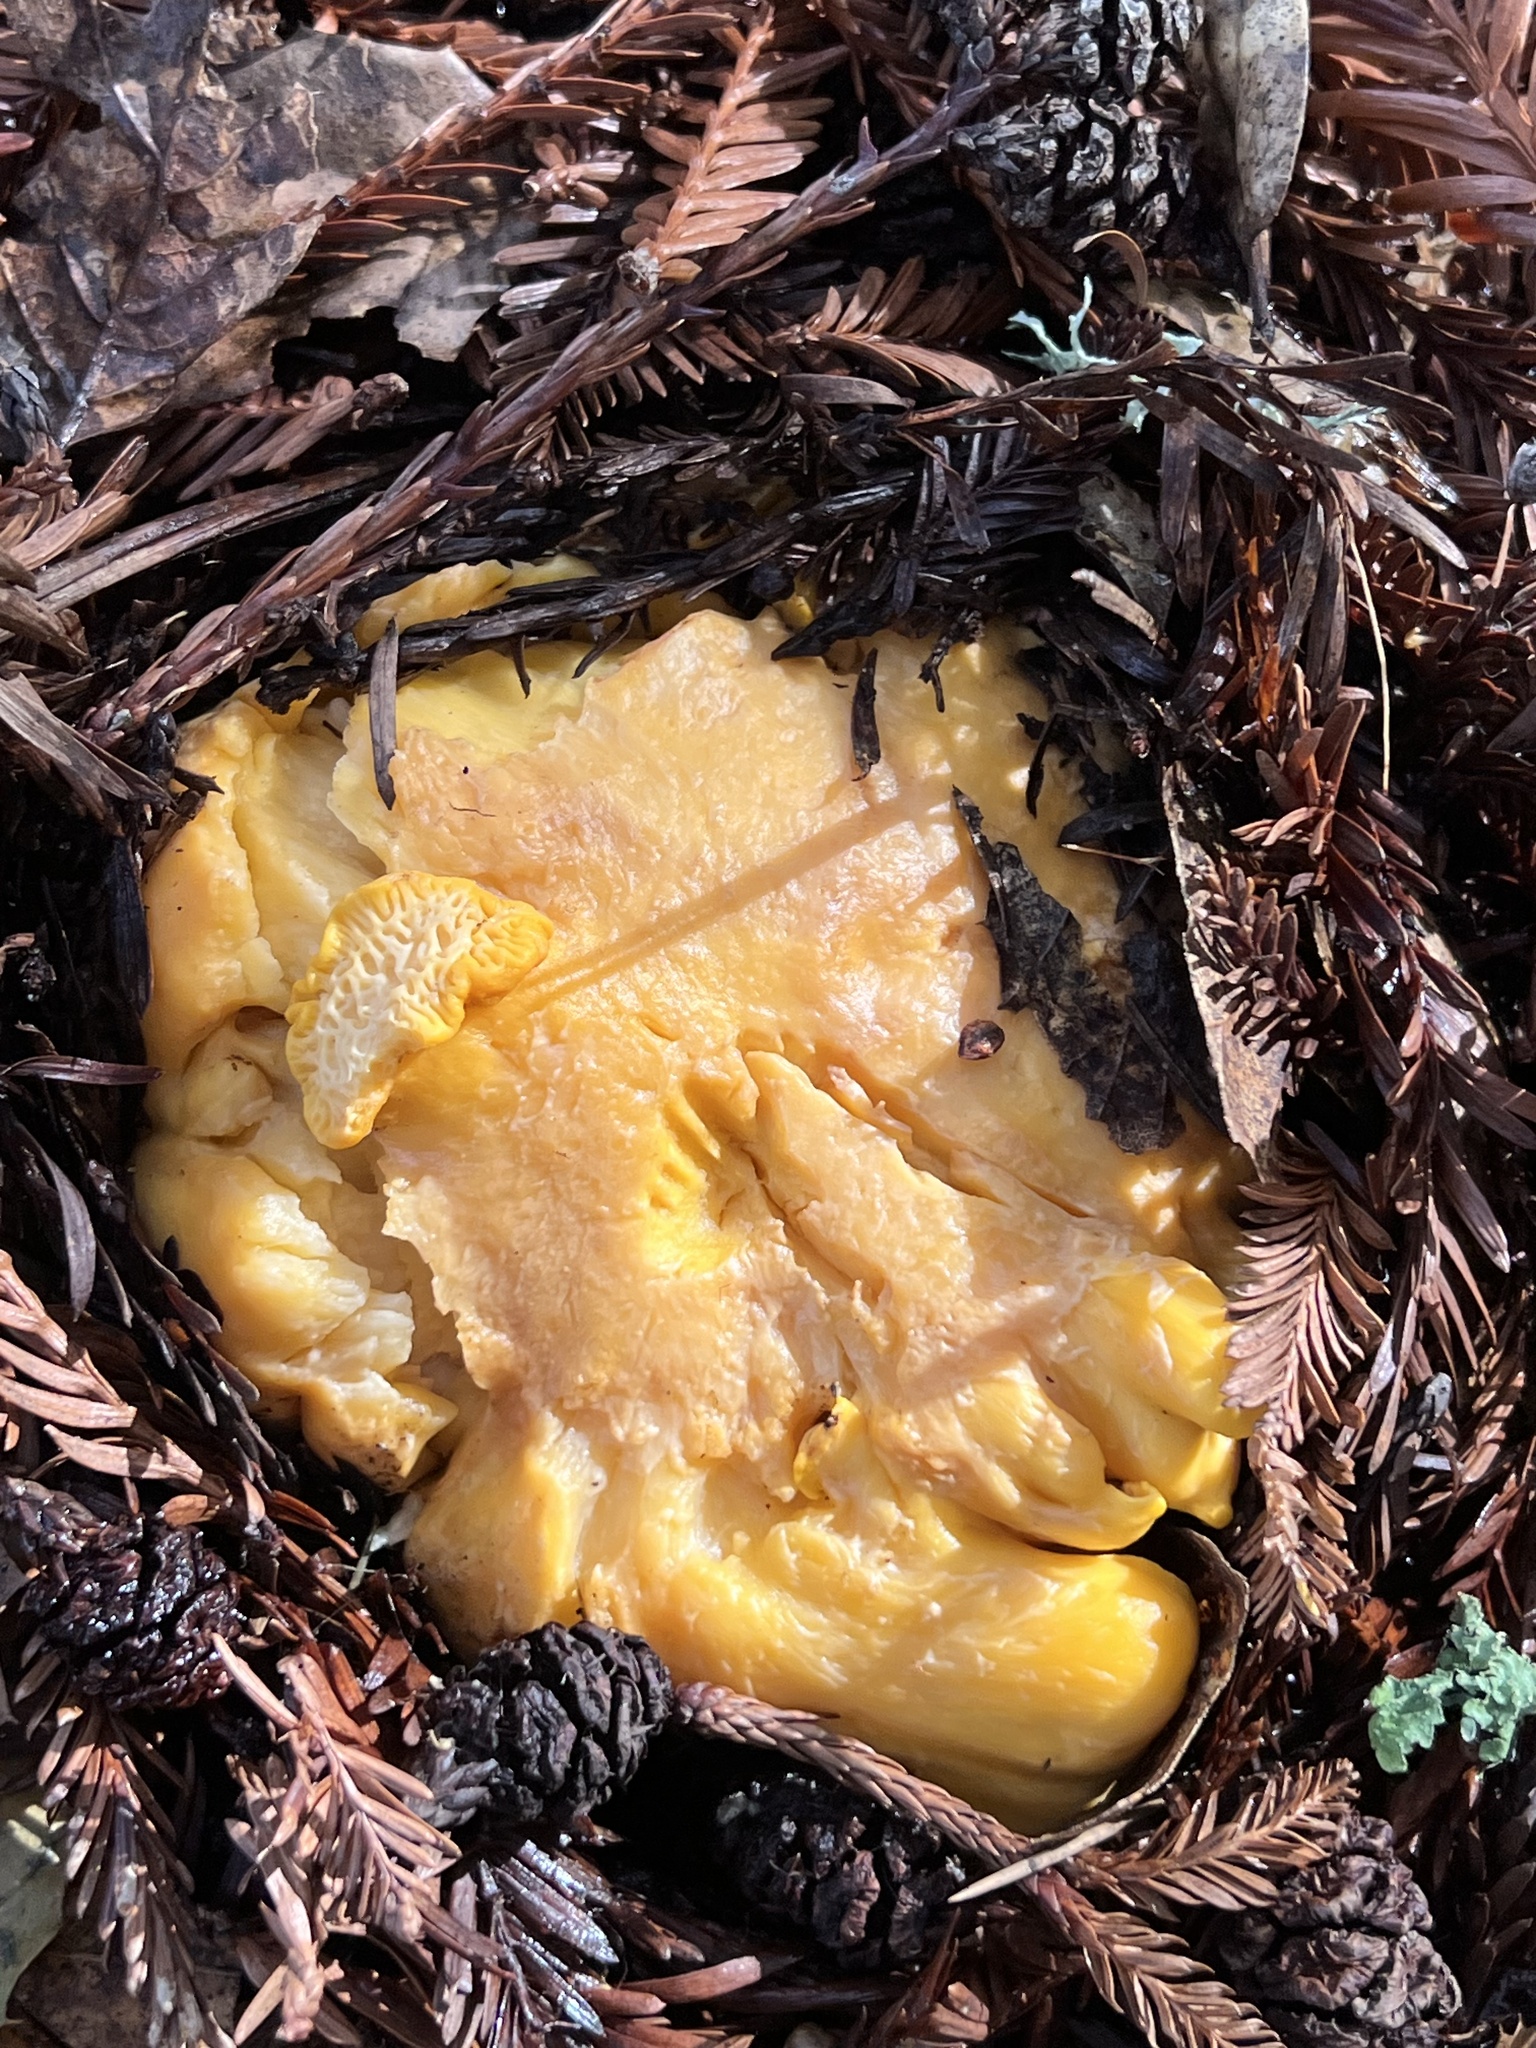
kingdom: Fungi
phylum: Basidiomycota
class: Agaricomycetes
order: Cantharellales
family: Hydnaceae
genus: Cantharellus
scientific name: Cantharellus californicus
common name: California golden chanterelle
